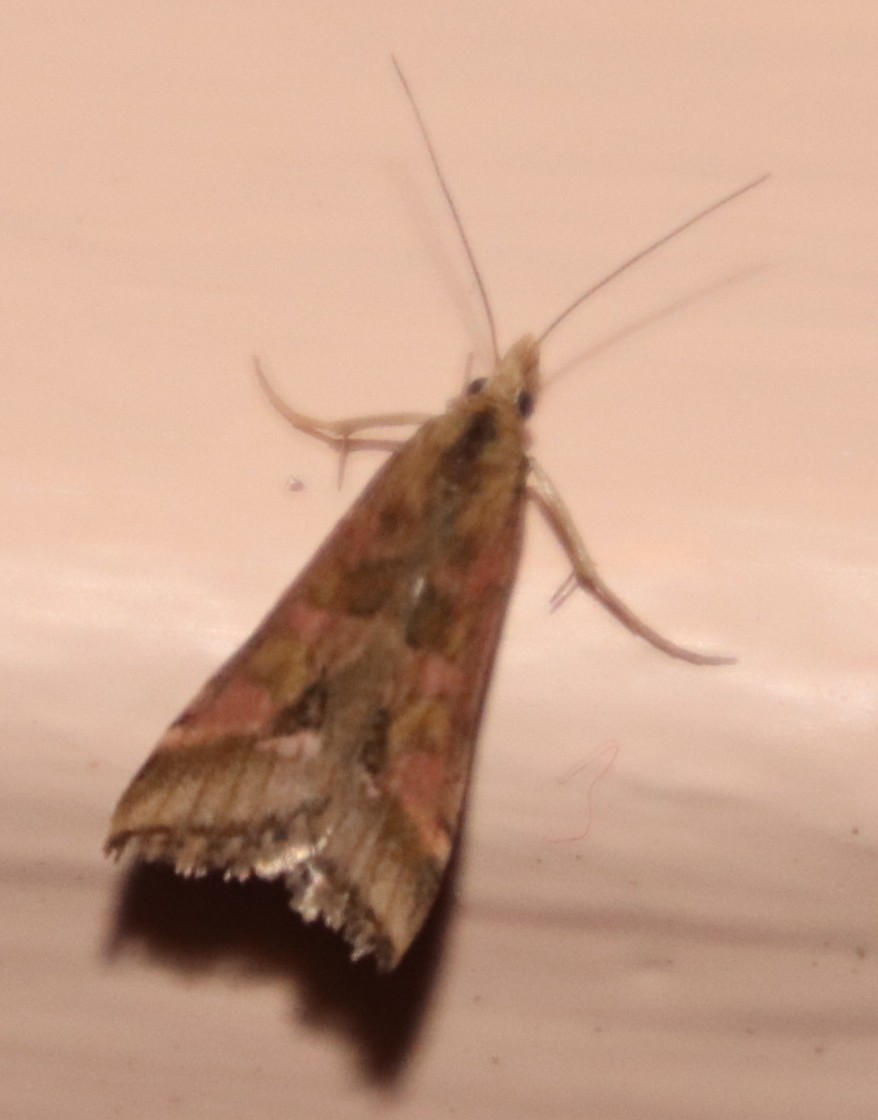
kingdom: Animalia
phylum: Arthropoda
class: Insecta
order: Lepidoptera
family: Crambidae
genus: Diasemia
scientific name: Diasemia monostigma
